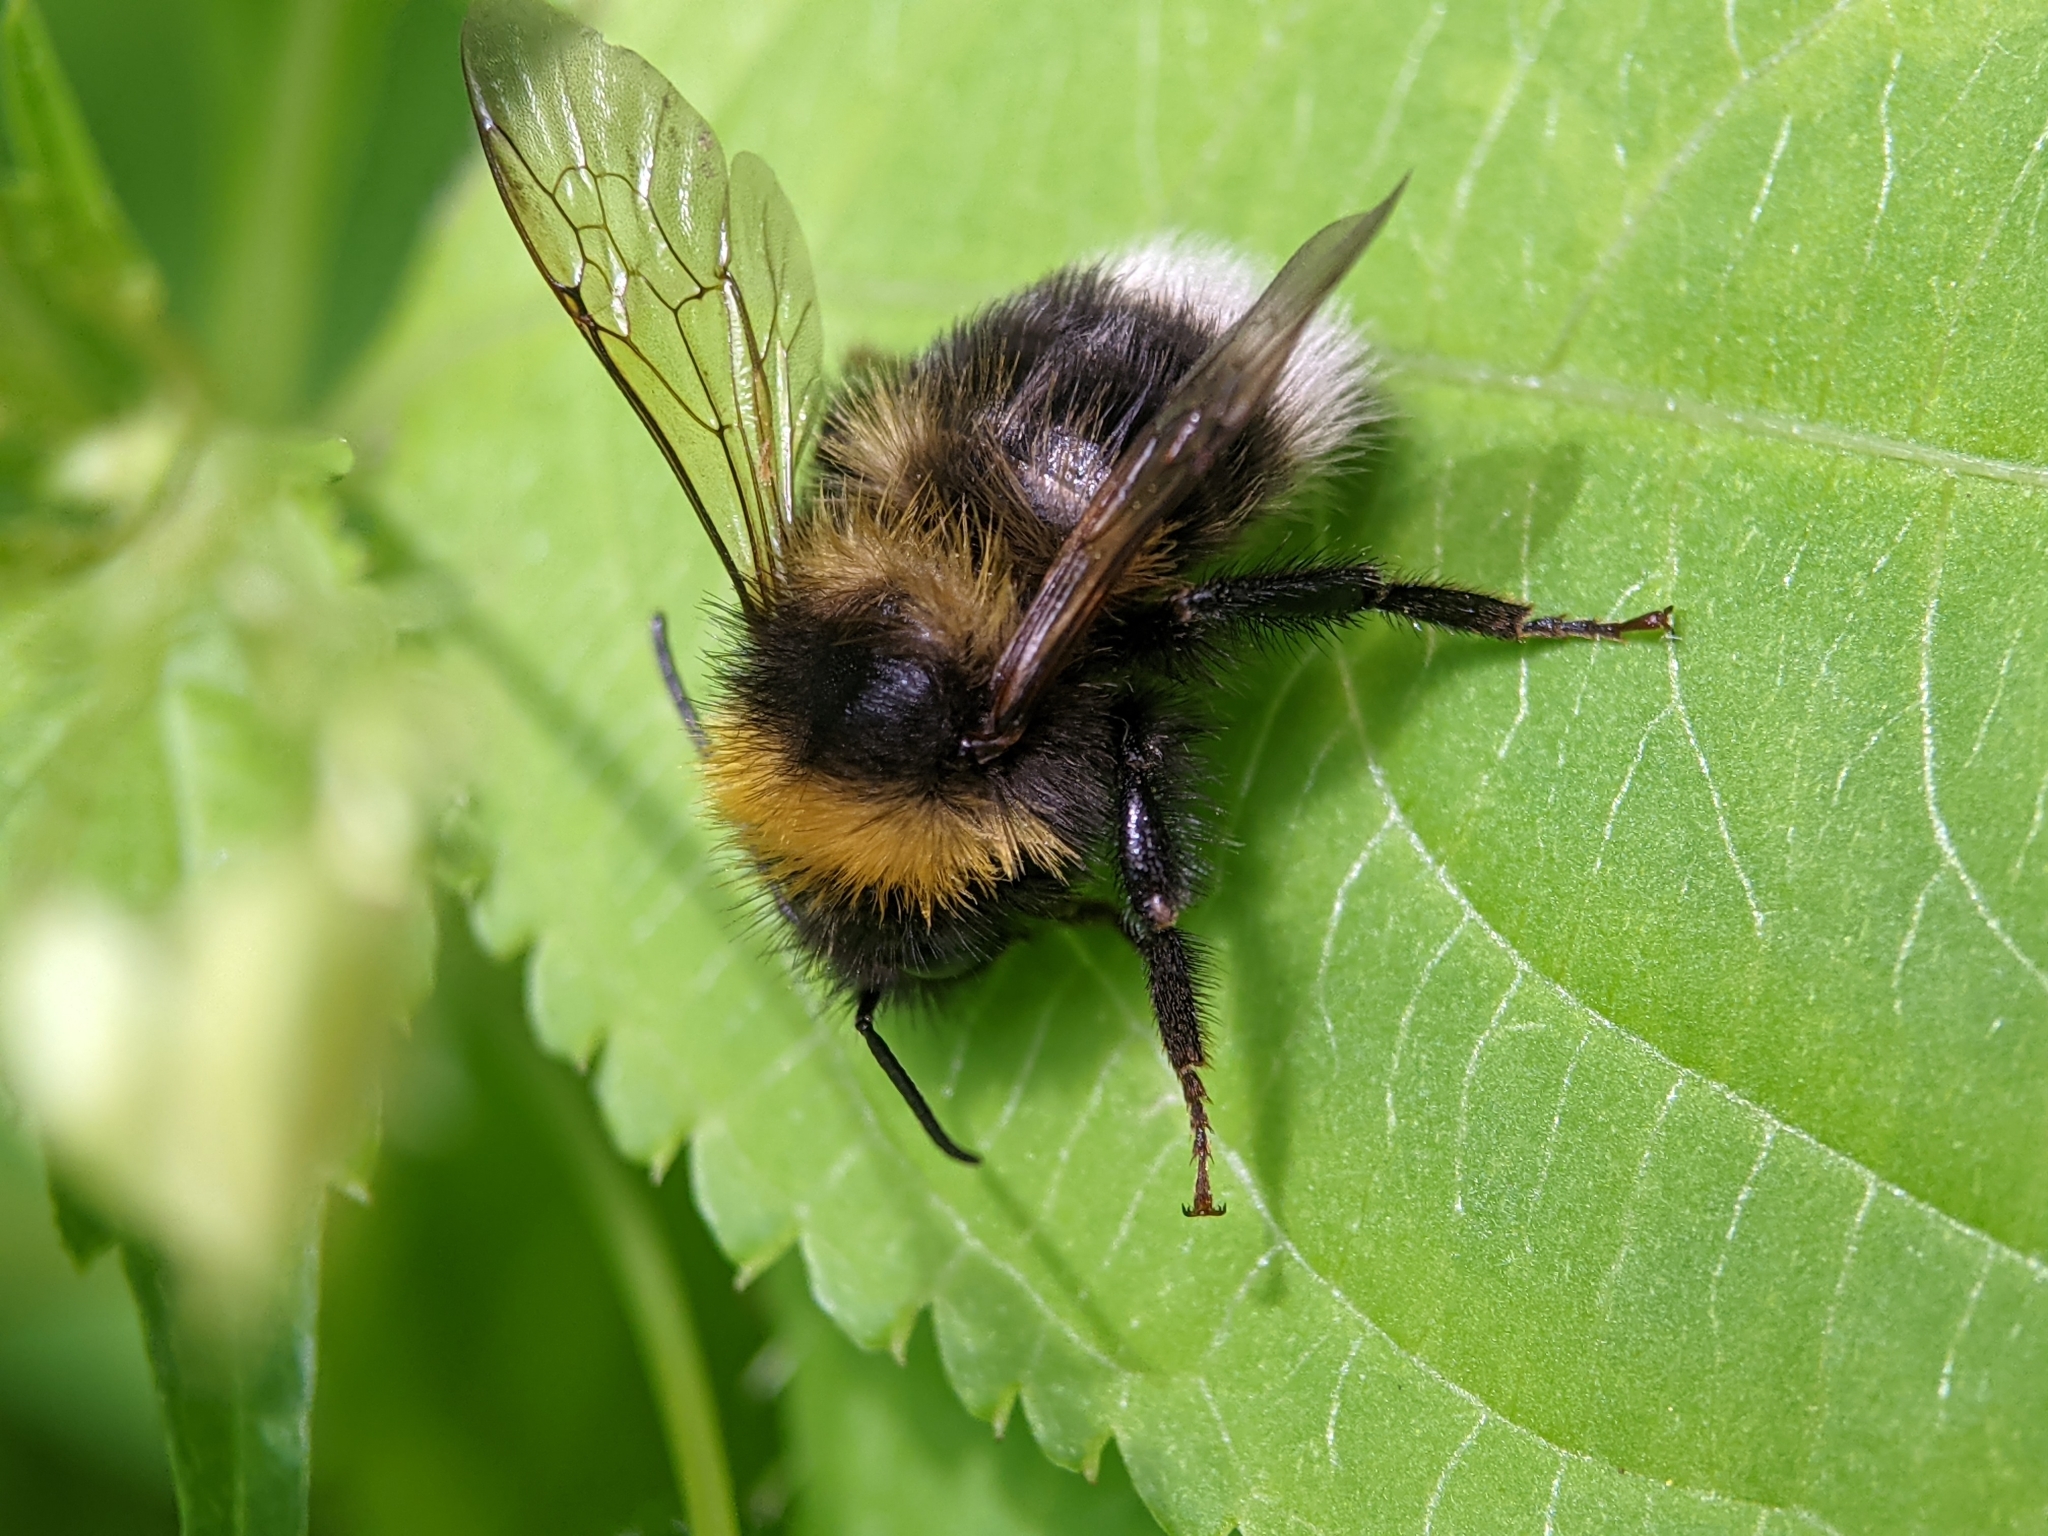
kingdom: Animalia
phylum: Arthropoda
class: Insecta
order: Hymenoptera
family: Apidae
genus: Bombus
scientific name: Bombus hortorum
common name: Garden bumblebee
